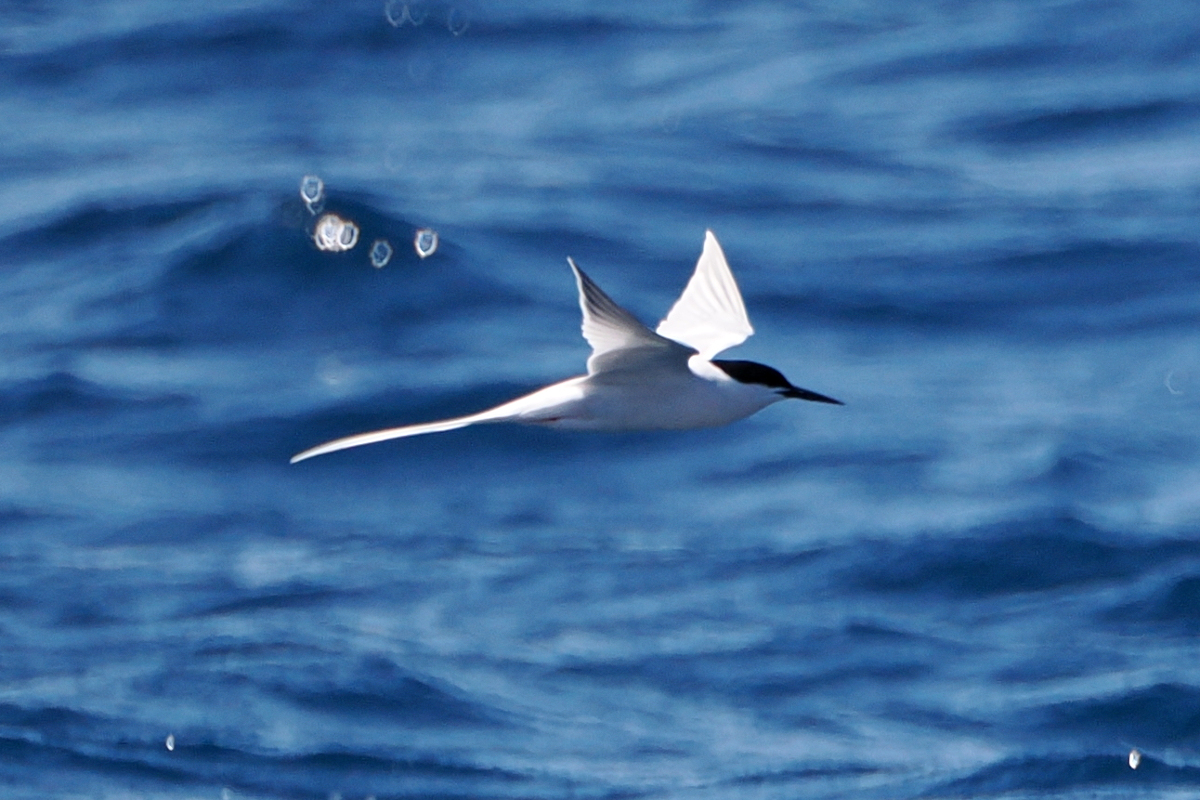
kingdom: Animalia
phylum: Chordata
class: Aves
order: Charadriiformes
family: Laridae
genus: Sterna
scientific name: Sterna dougallii
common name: Roseate tern
